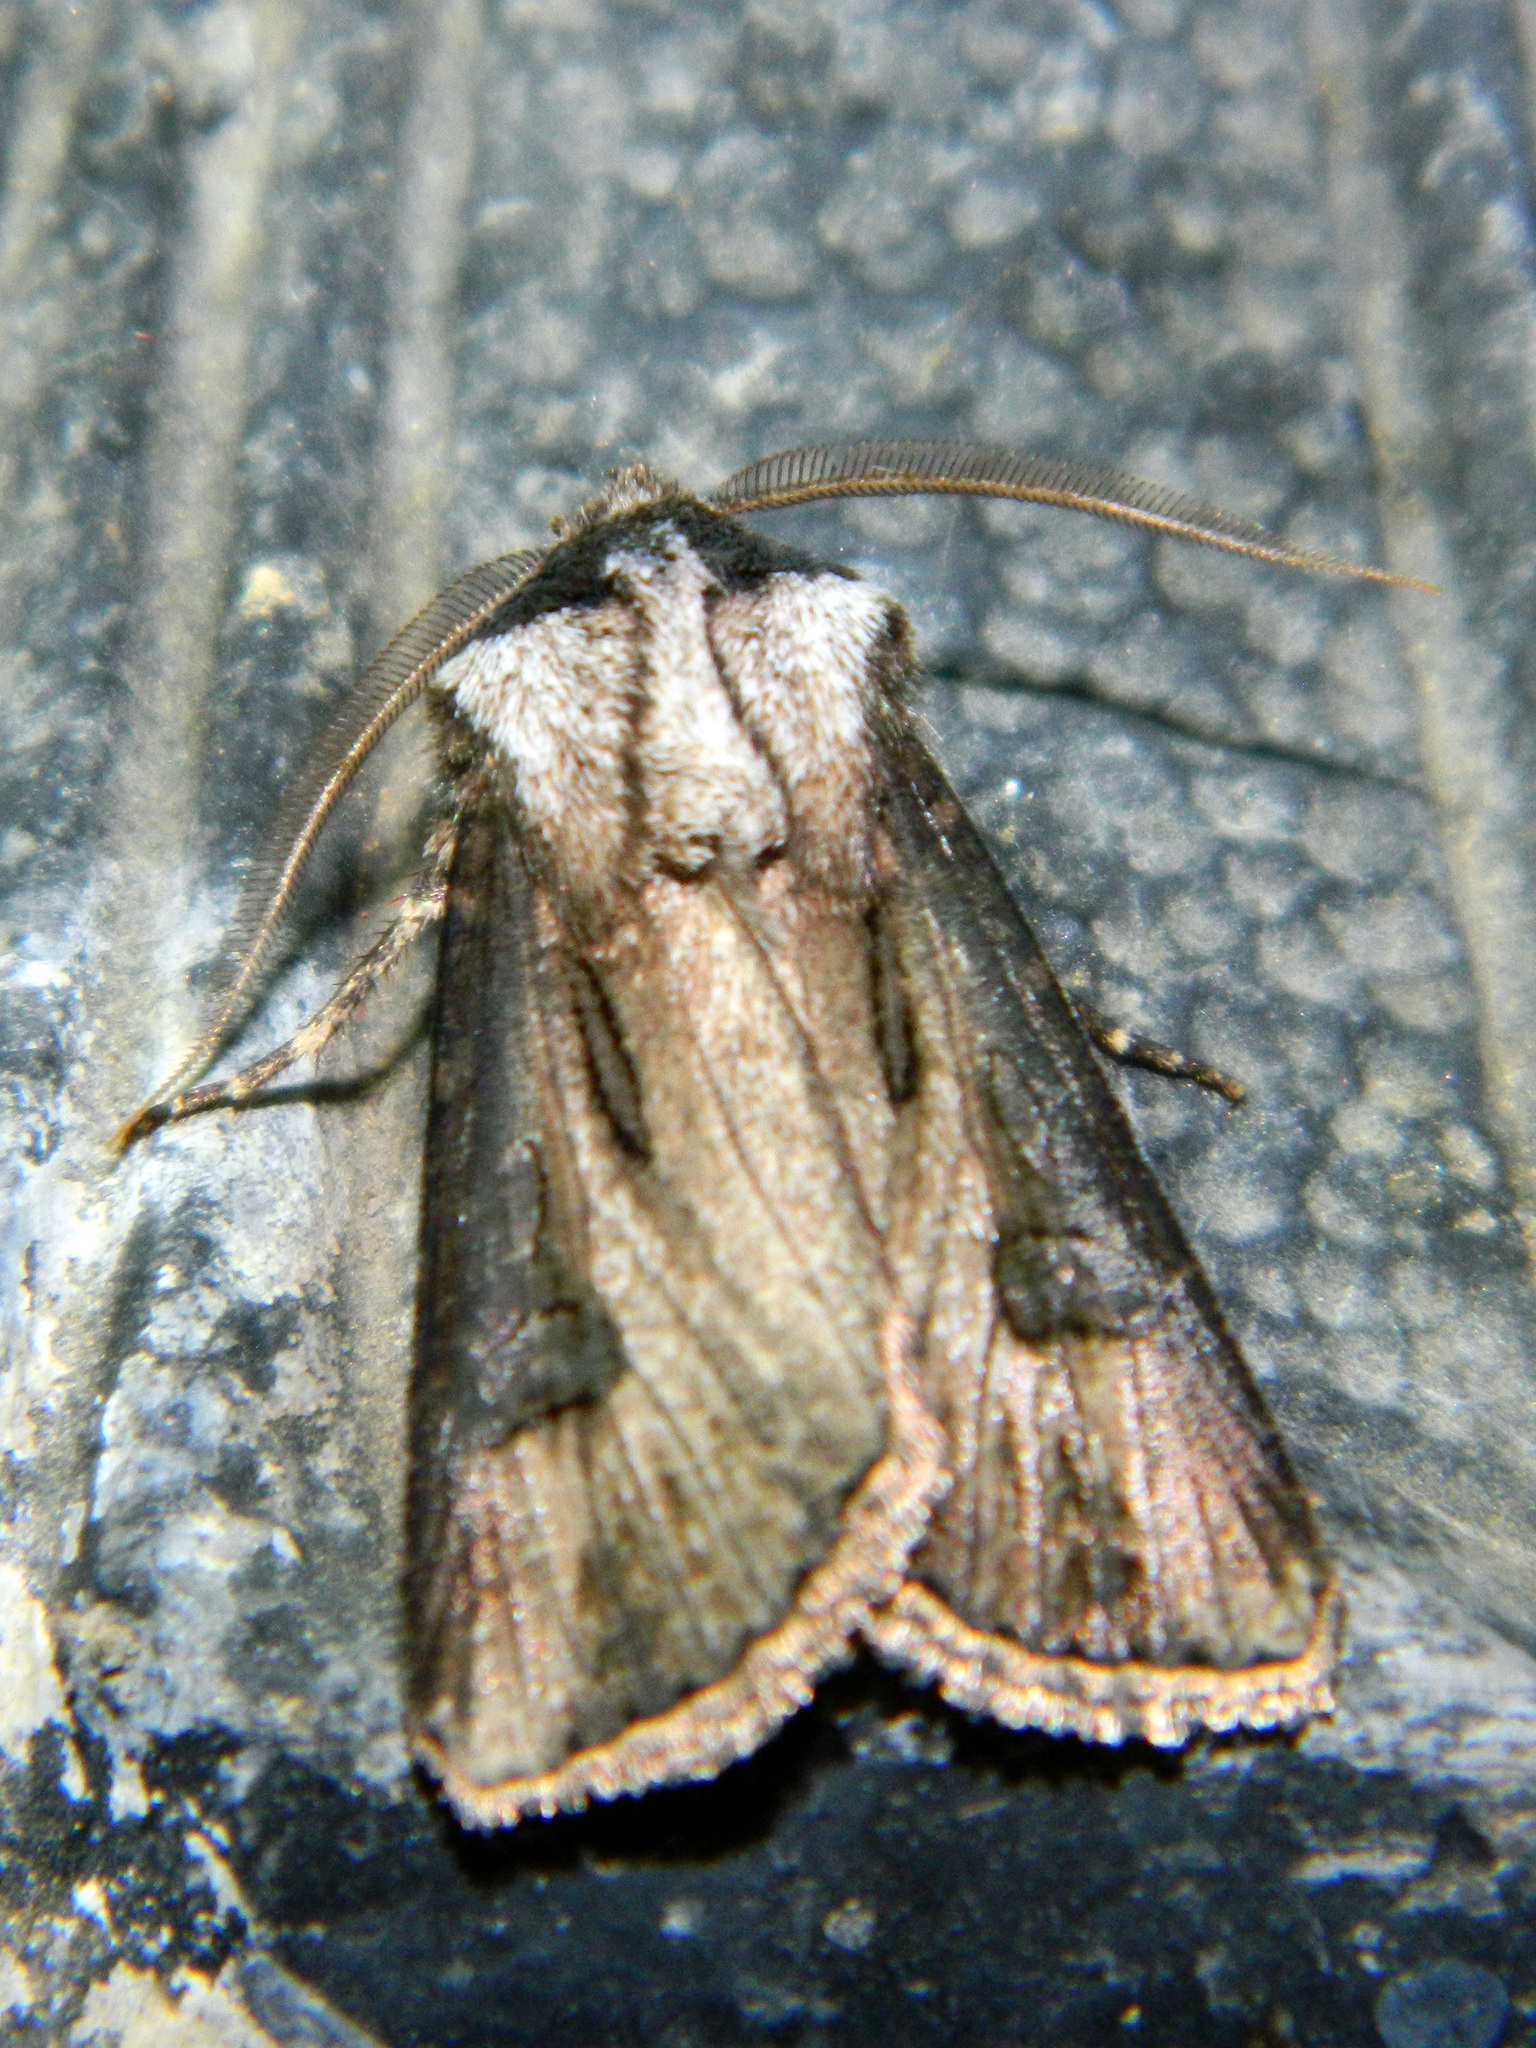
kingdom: Animalia
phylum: Arthropoda
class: Insecta
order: Lepidoptera
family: Noctuidae
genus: Agrotis
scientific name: Agrotis venerabilis
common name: Venerable dart
